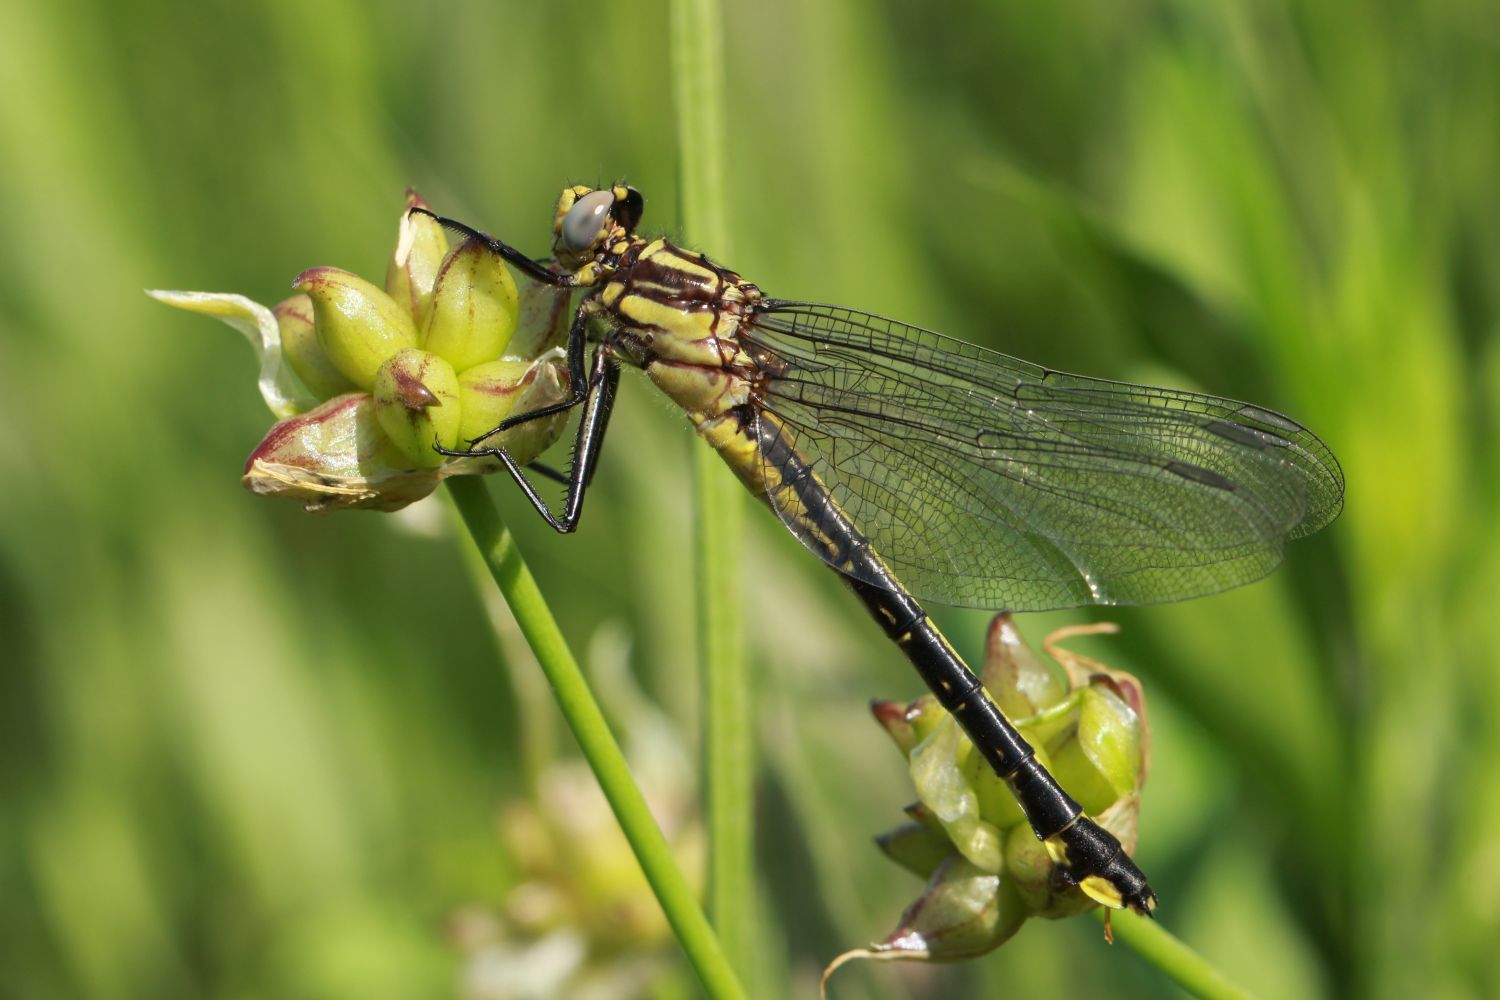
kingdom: Animalia
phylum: Arthropoda
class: Insecta
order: Odonata
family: Gomphidae
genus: Gomphurus
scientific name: Gomphurus fraternus
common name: Midland clubtail
